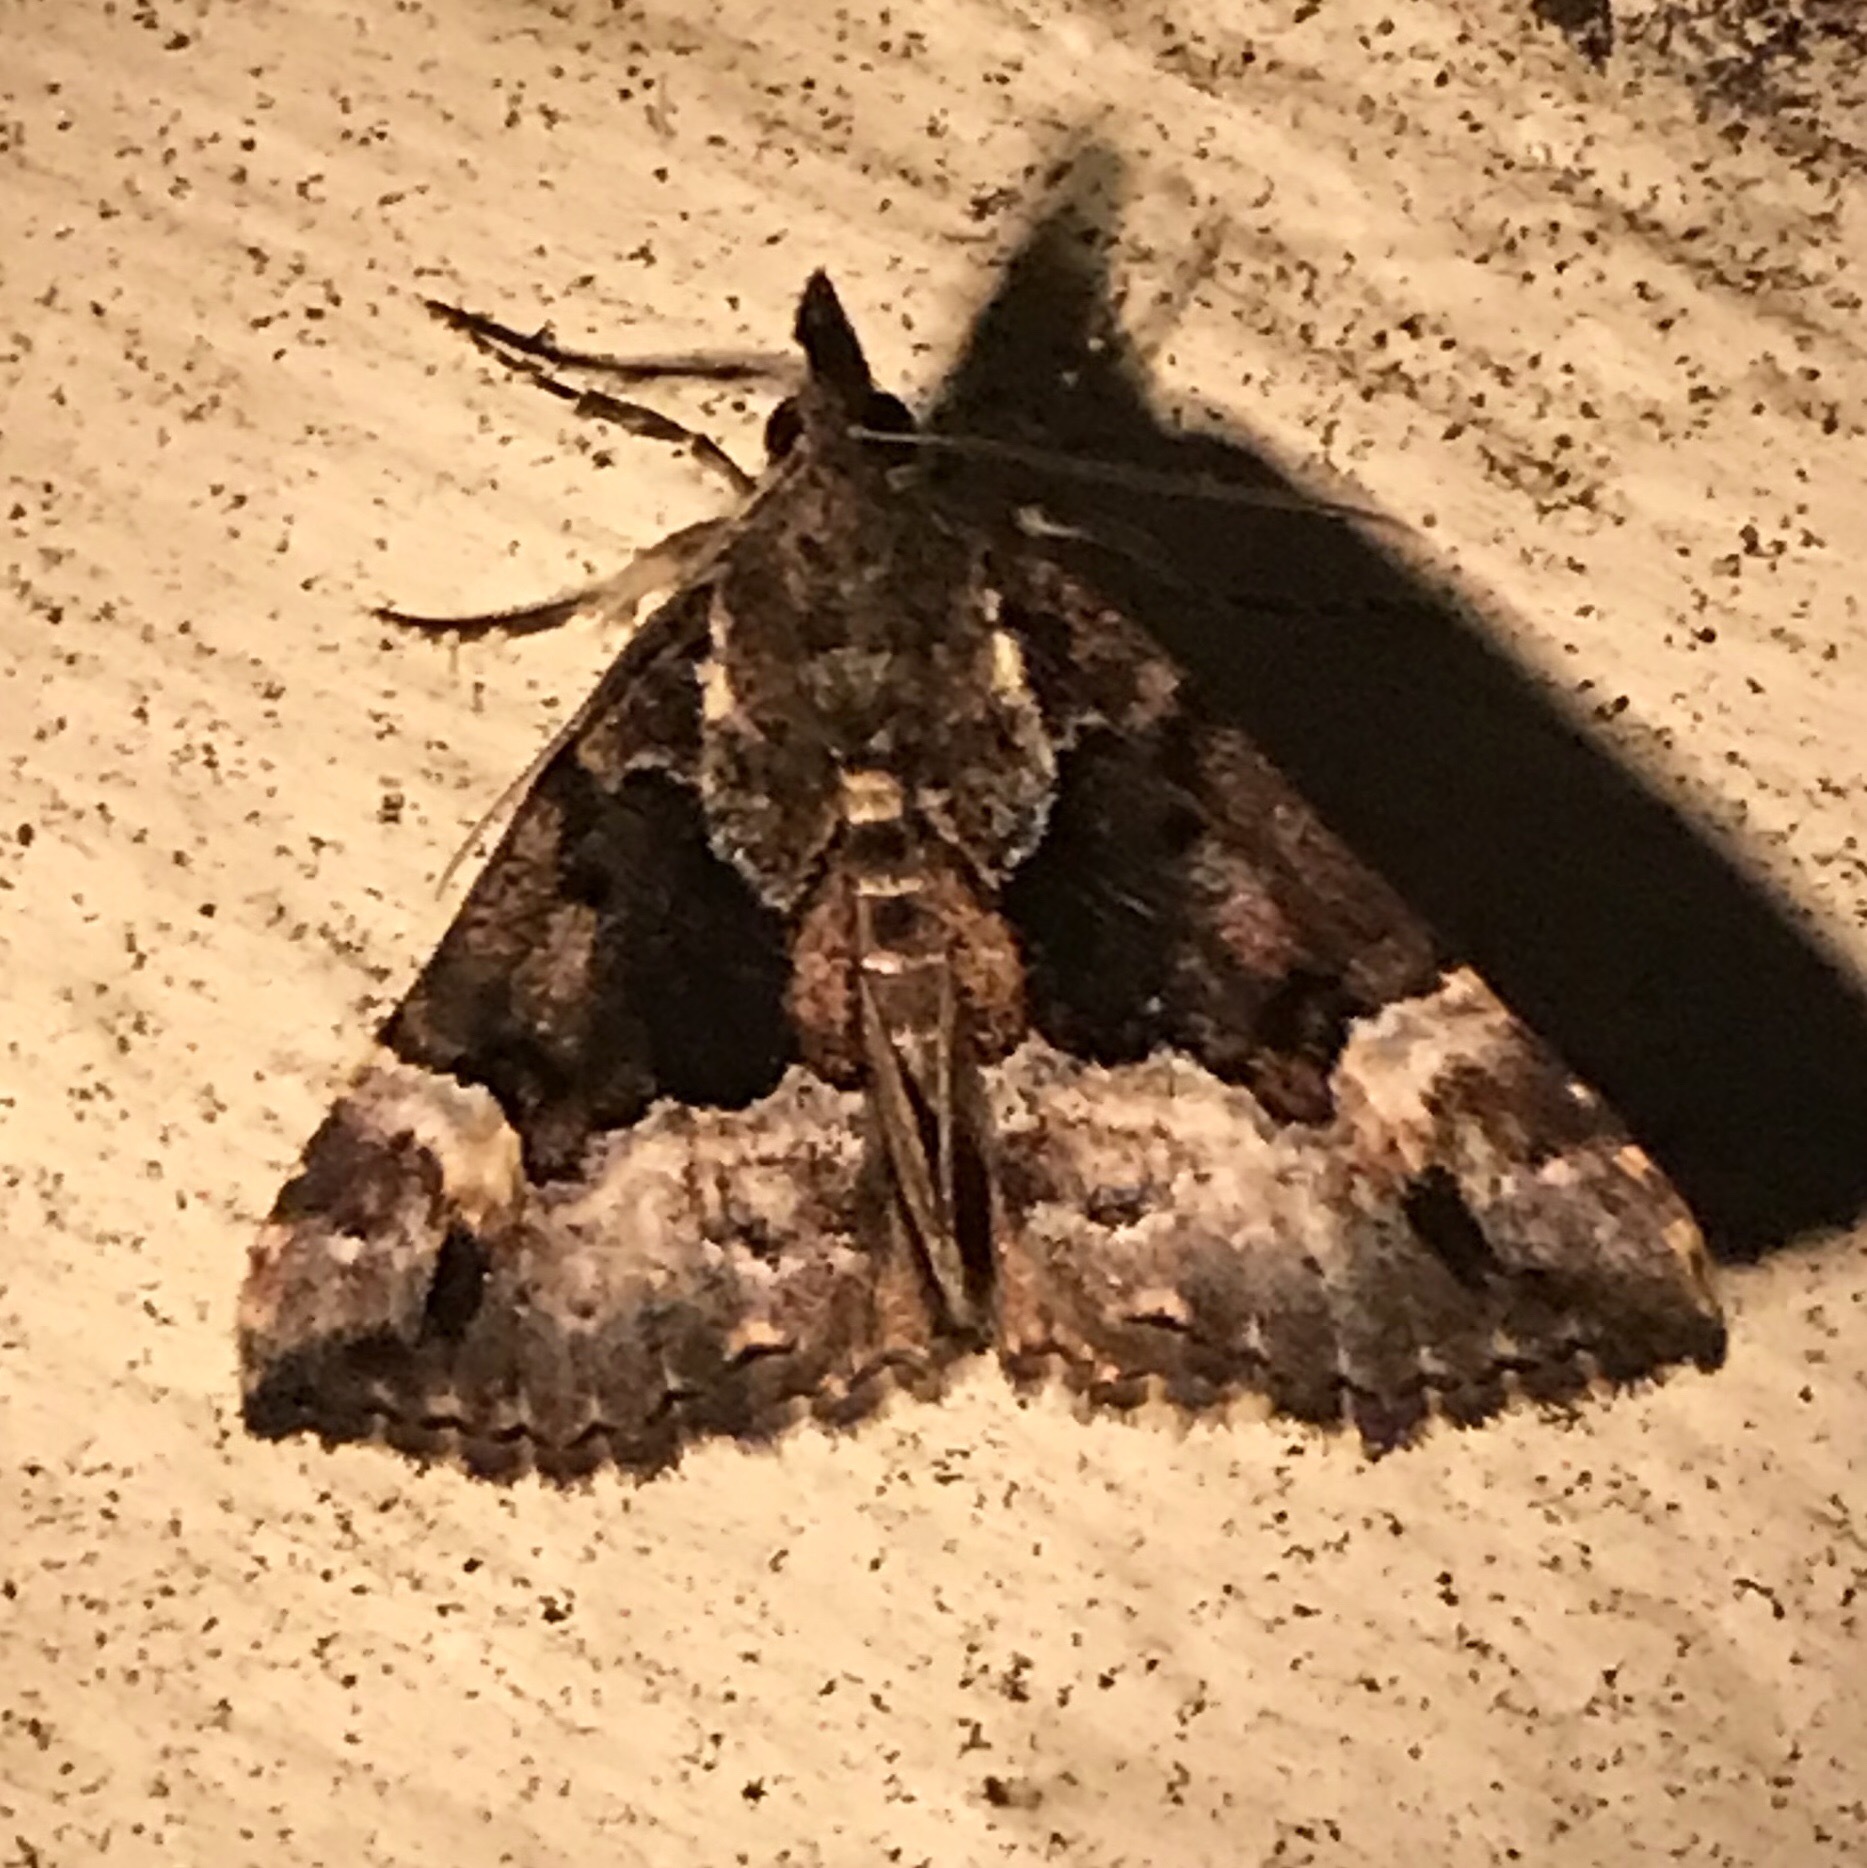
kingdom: Animalia
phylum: Arthropoda
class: Insecta
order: Lepidoptera
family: Erebidae
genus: Hypena
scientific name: Hypena palparia
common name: Mottled bomolocha moth
